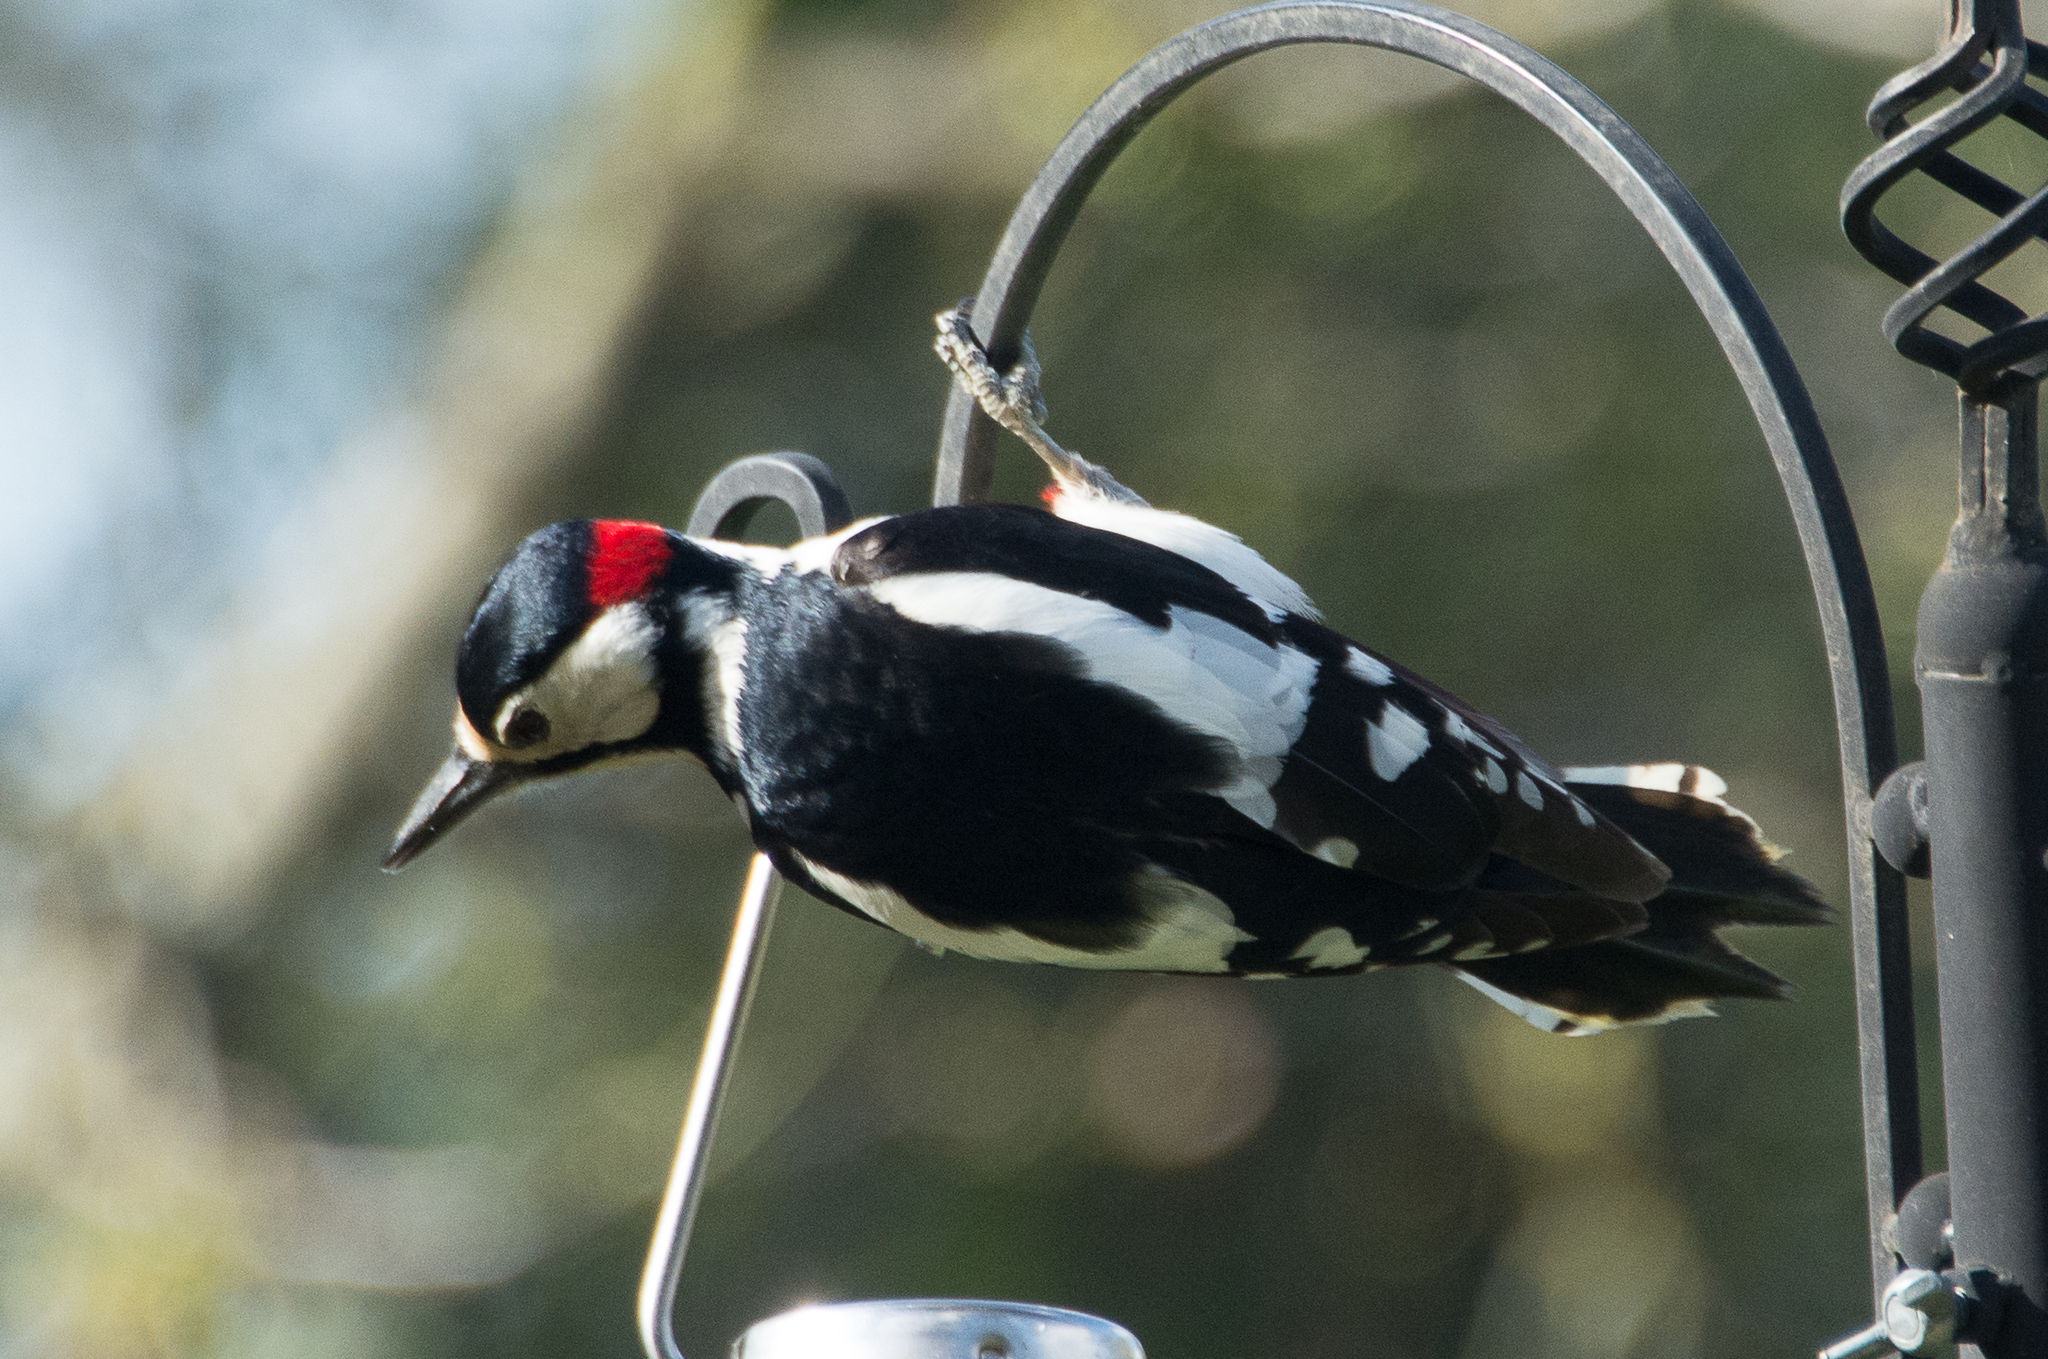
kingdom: Animalia
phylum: Chordata
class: Aves
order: Piciformes
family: Picidae
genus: Dendrocopos
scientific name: Dendrocopos major
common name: Great spotted woodpecker
